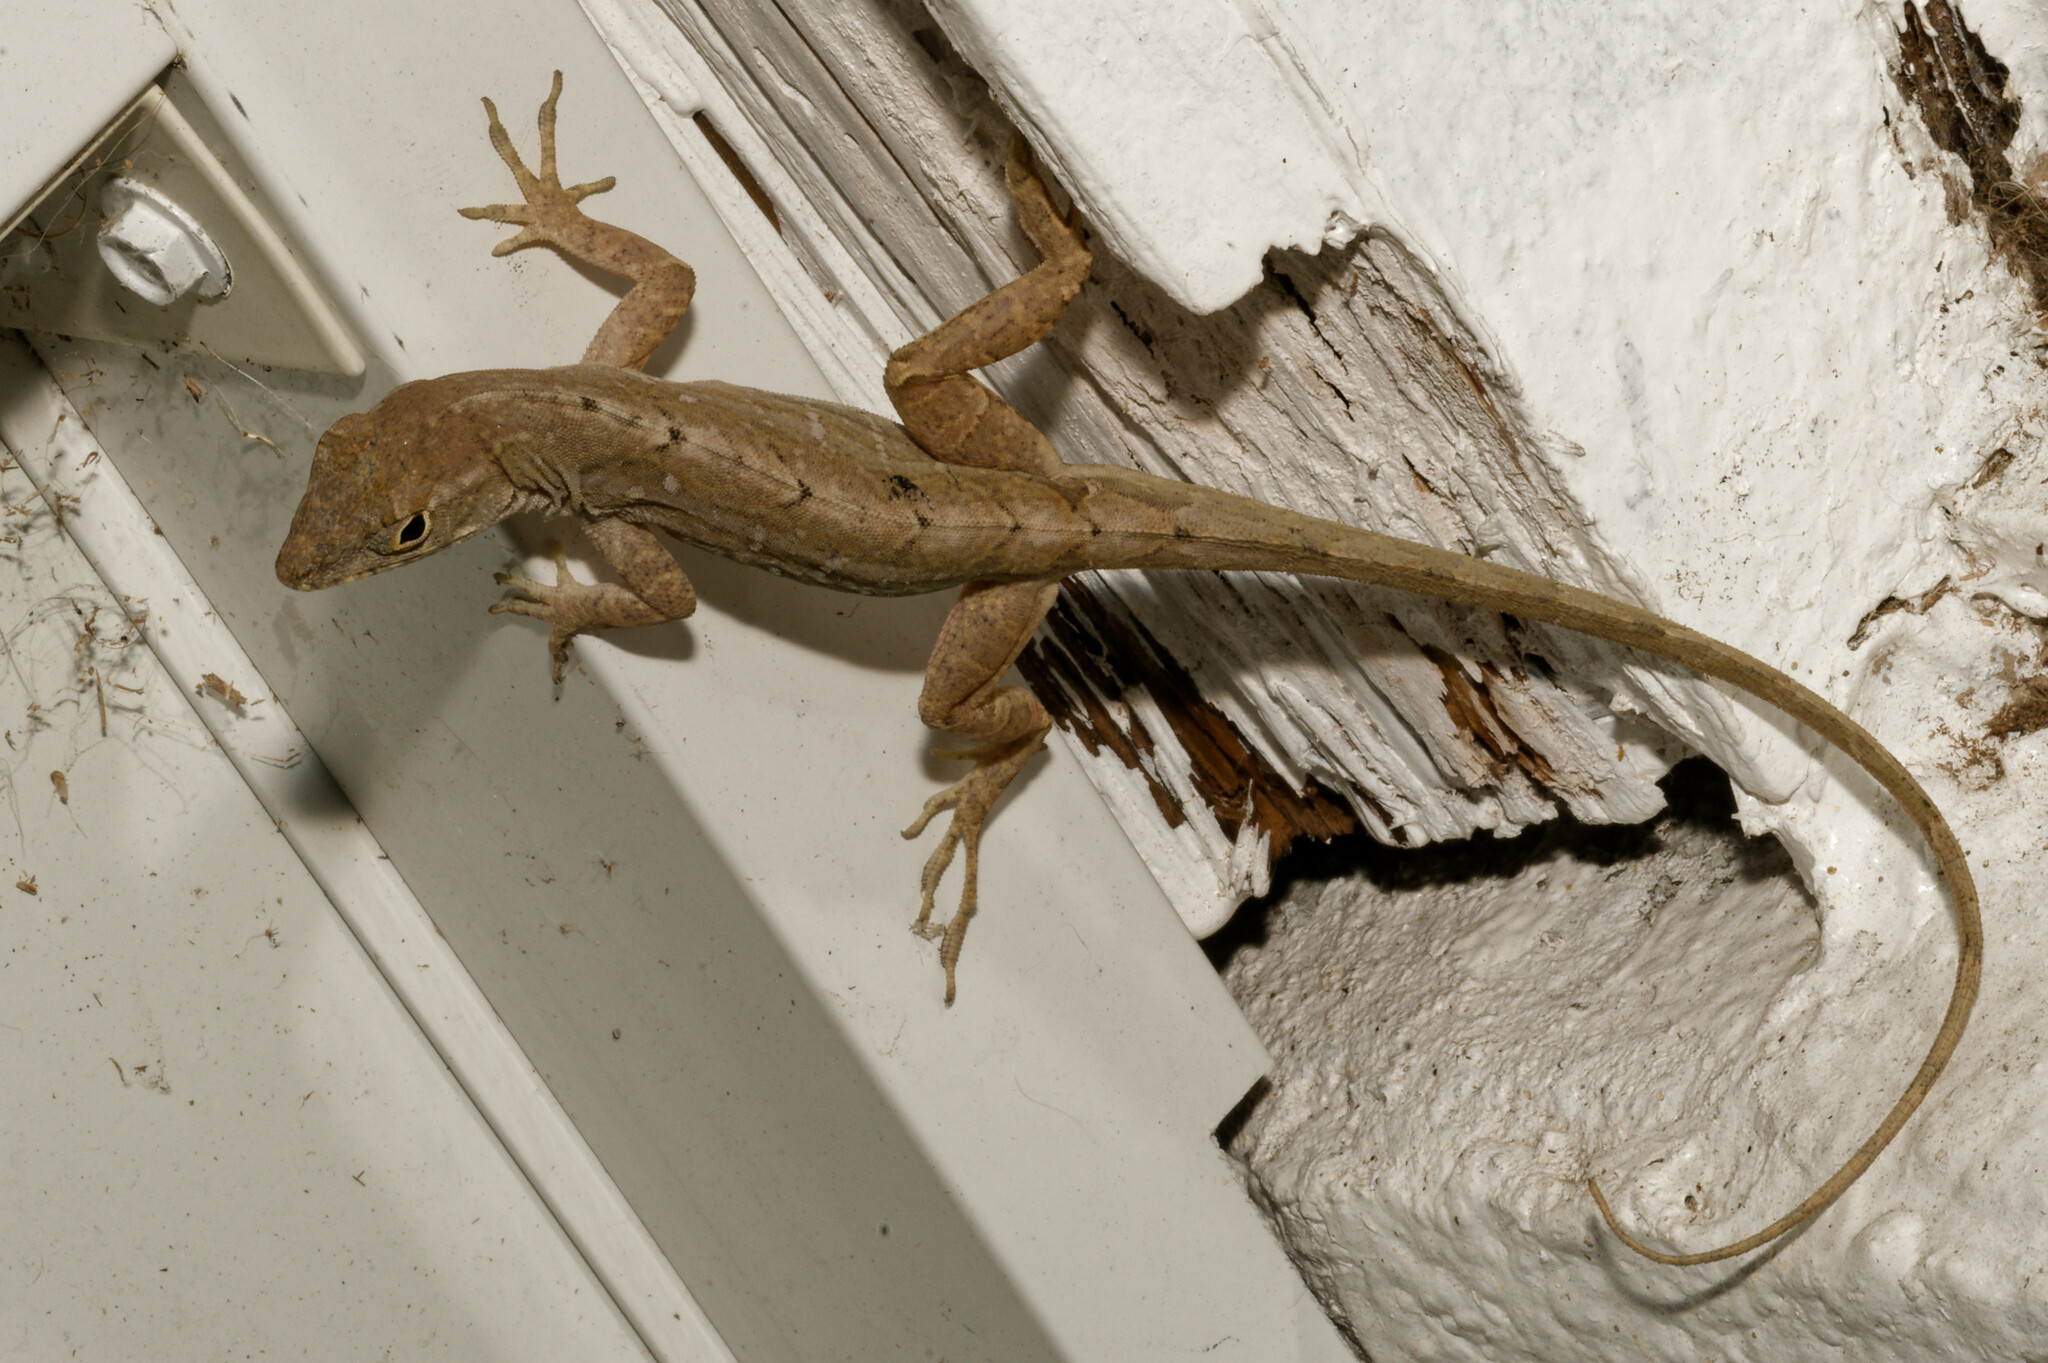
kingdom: Animalia
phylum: Chordata
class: Squamata
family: Dactyloidae
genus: Anolis
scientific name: Anolis sagrei
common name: Brown anole
